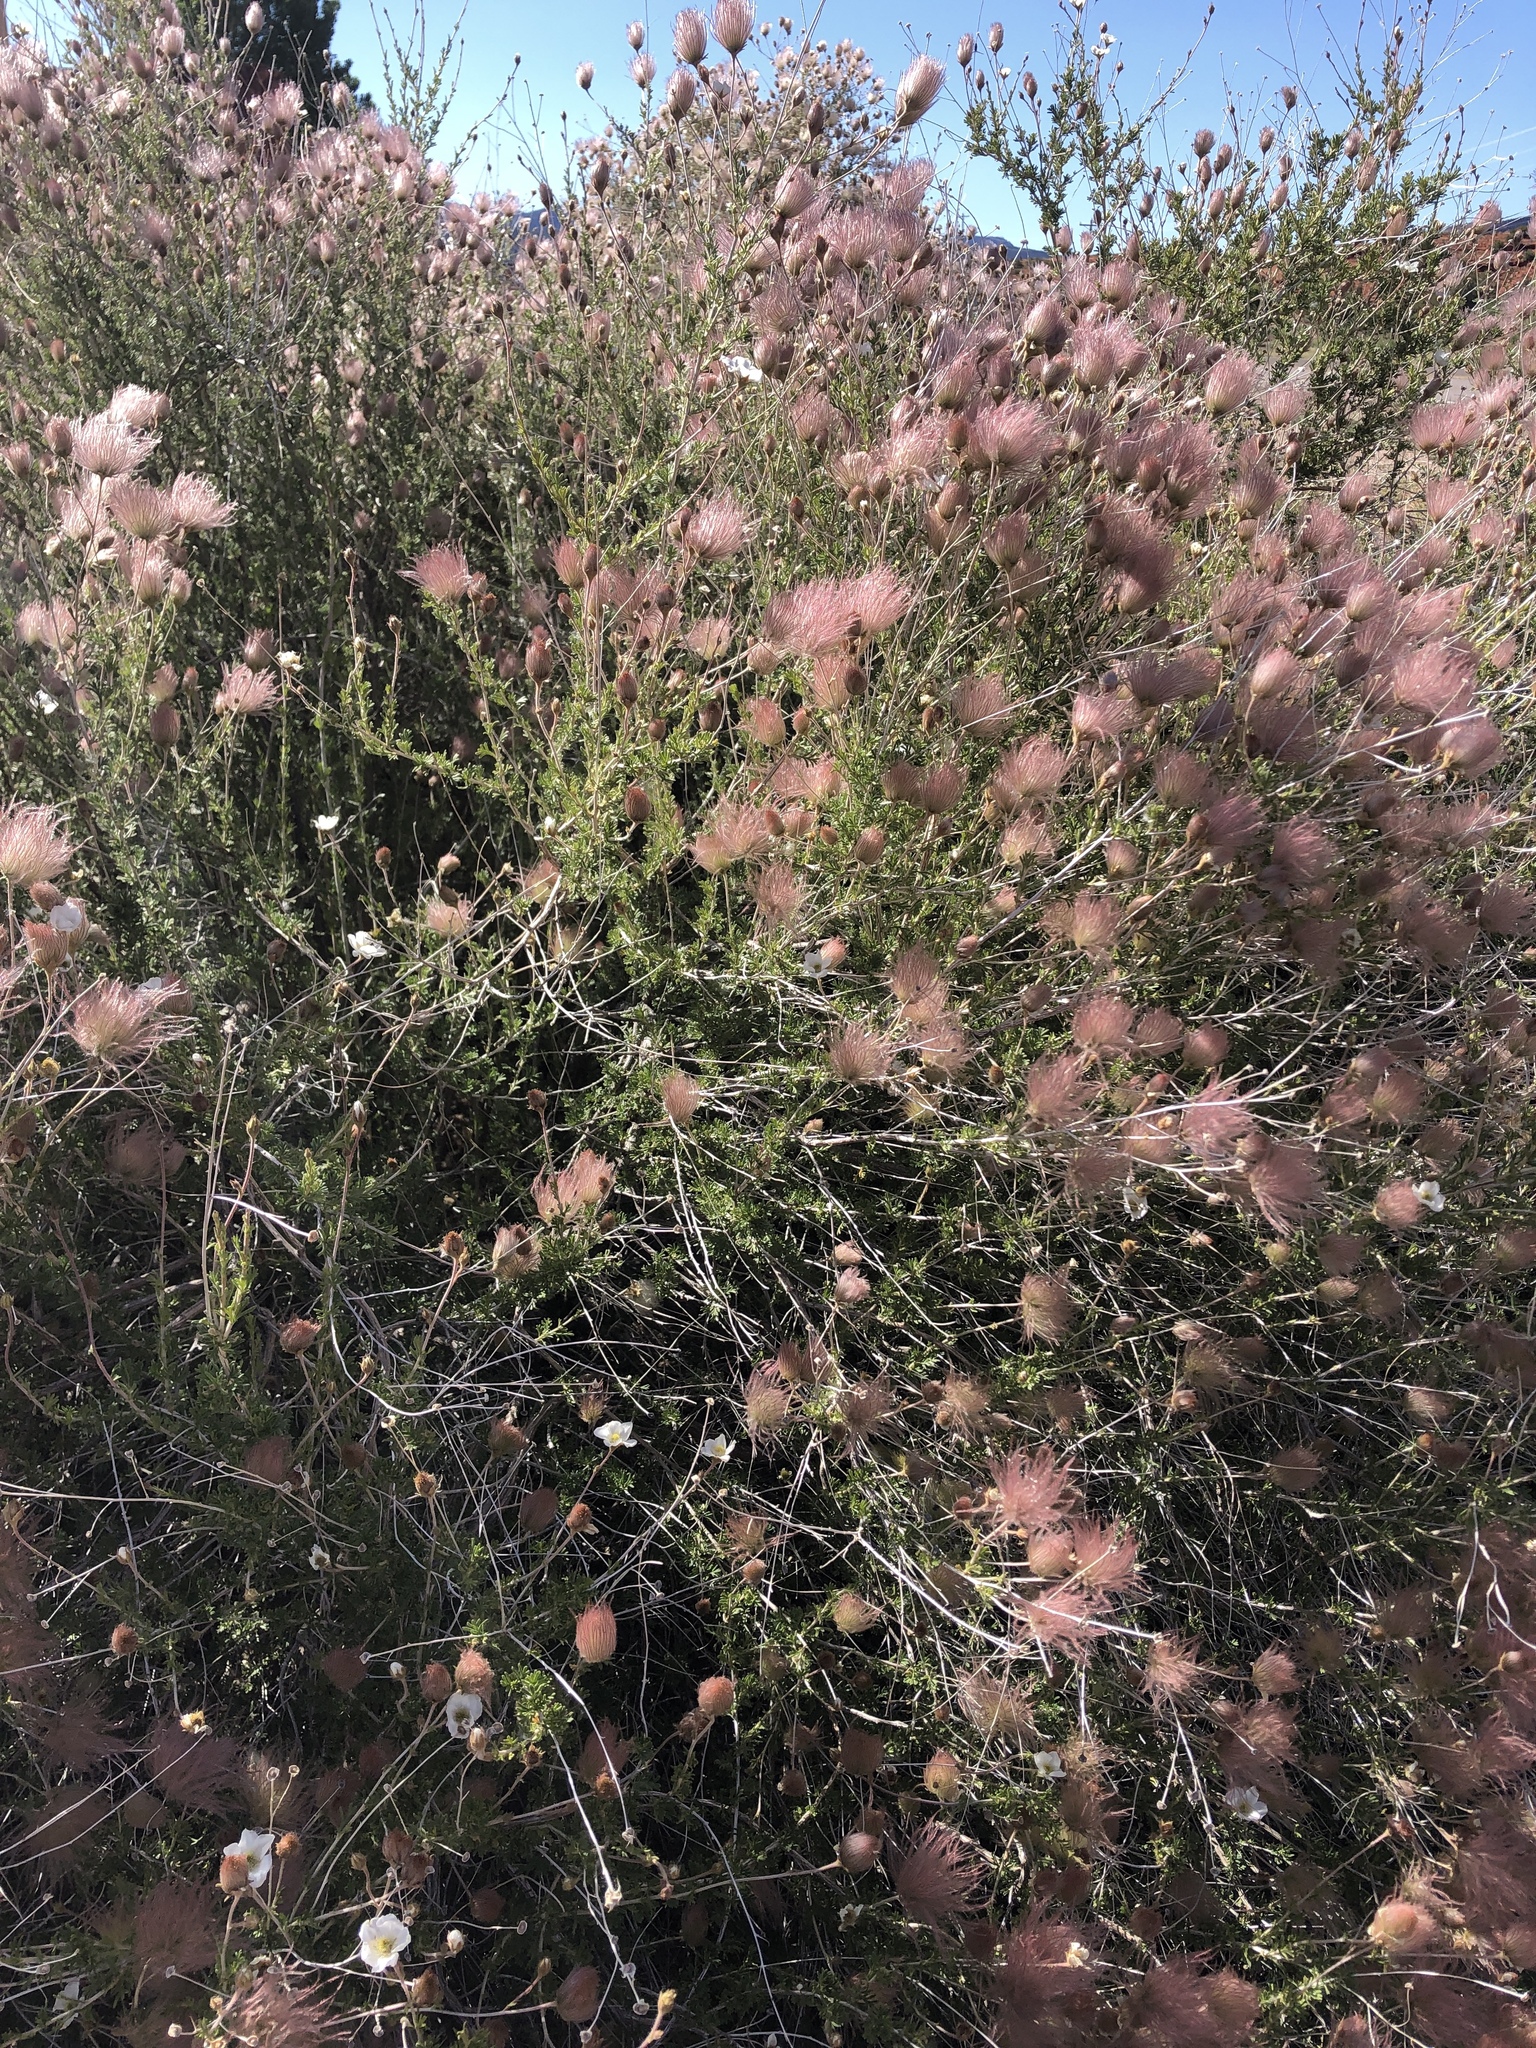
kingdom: Plantae
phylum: Tracheophyta
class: Magnoliopsida
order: Rosales
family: Rosaceae
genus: Fallugia
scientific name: Fallugia paradoxa
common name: Apache-plume
